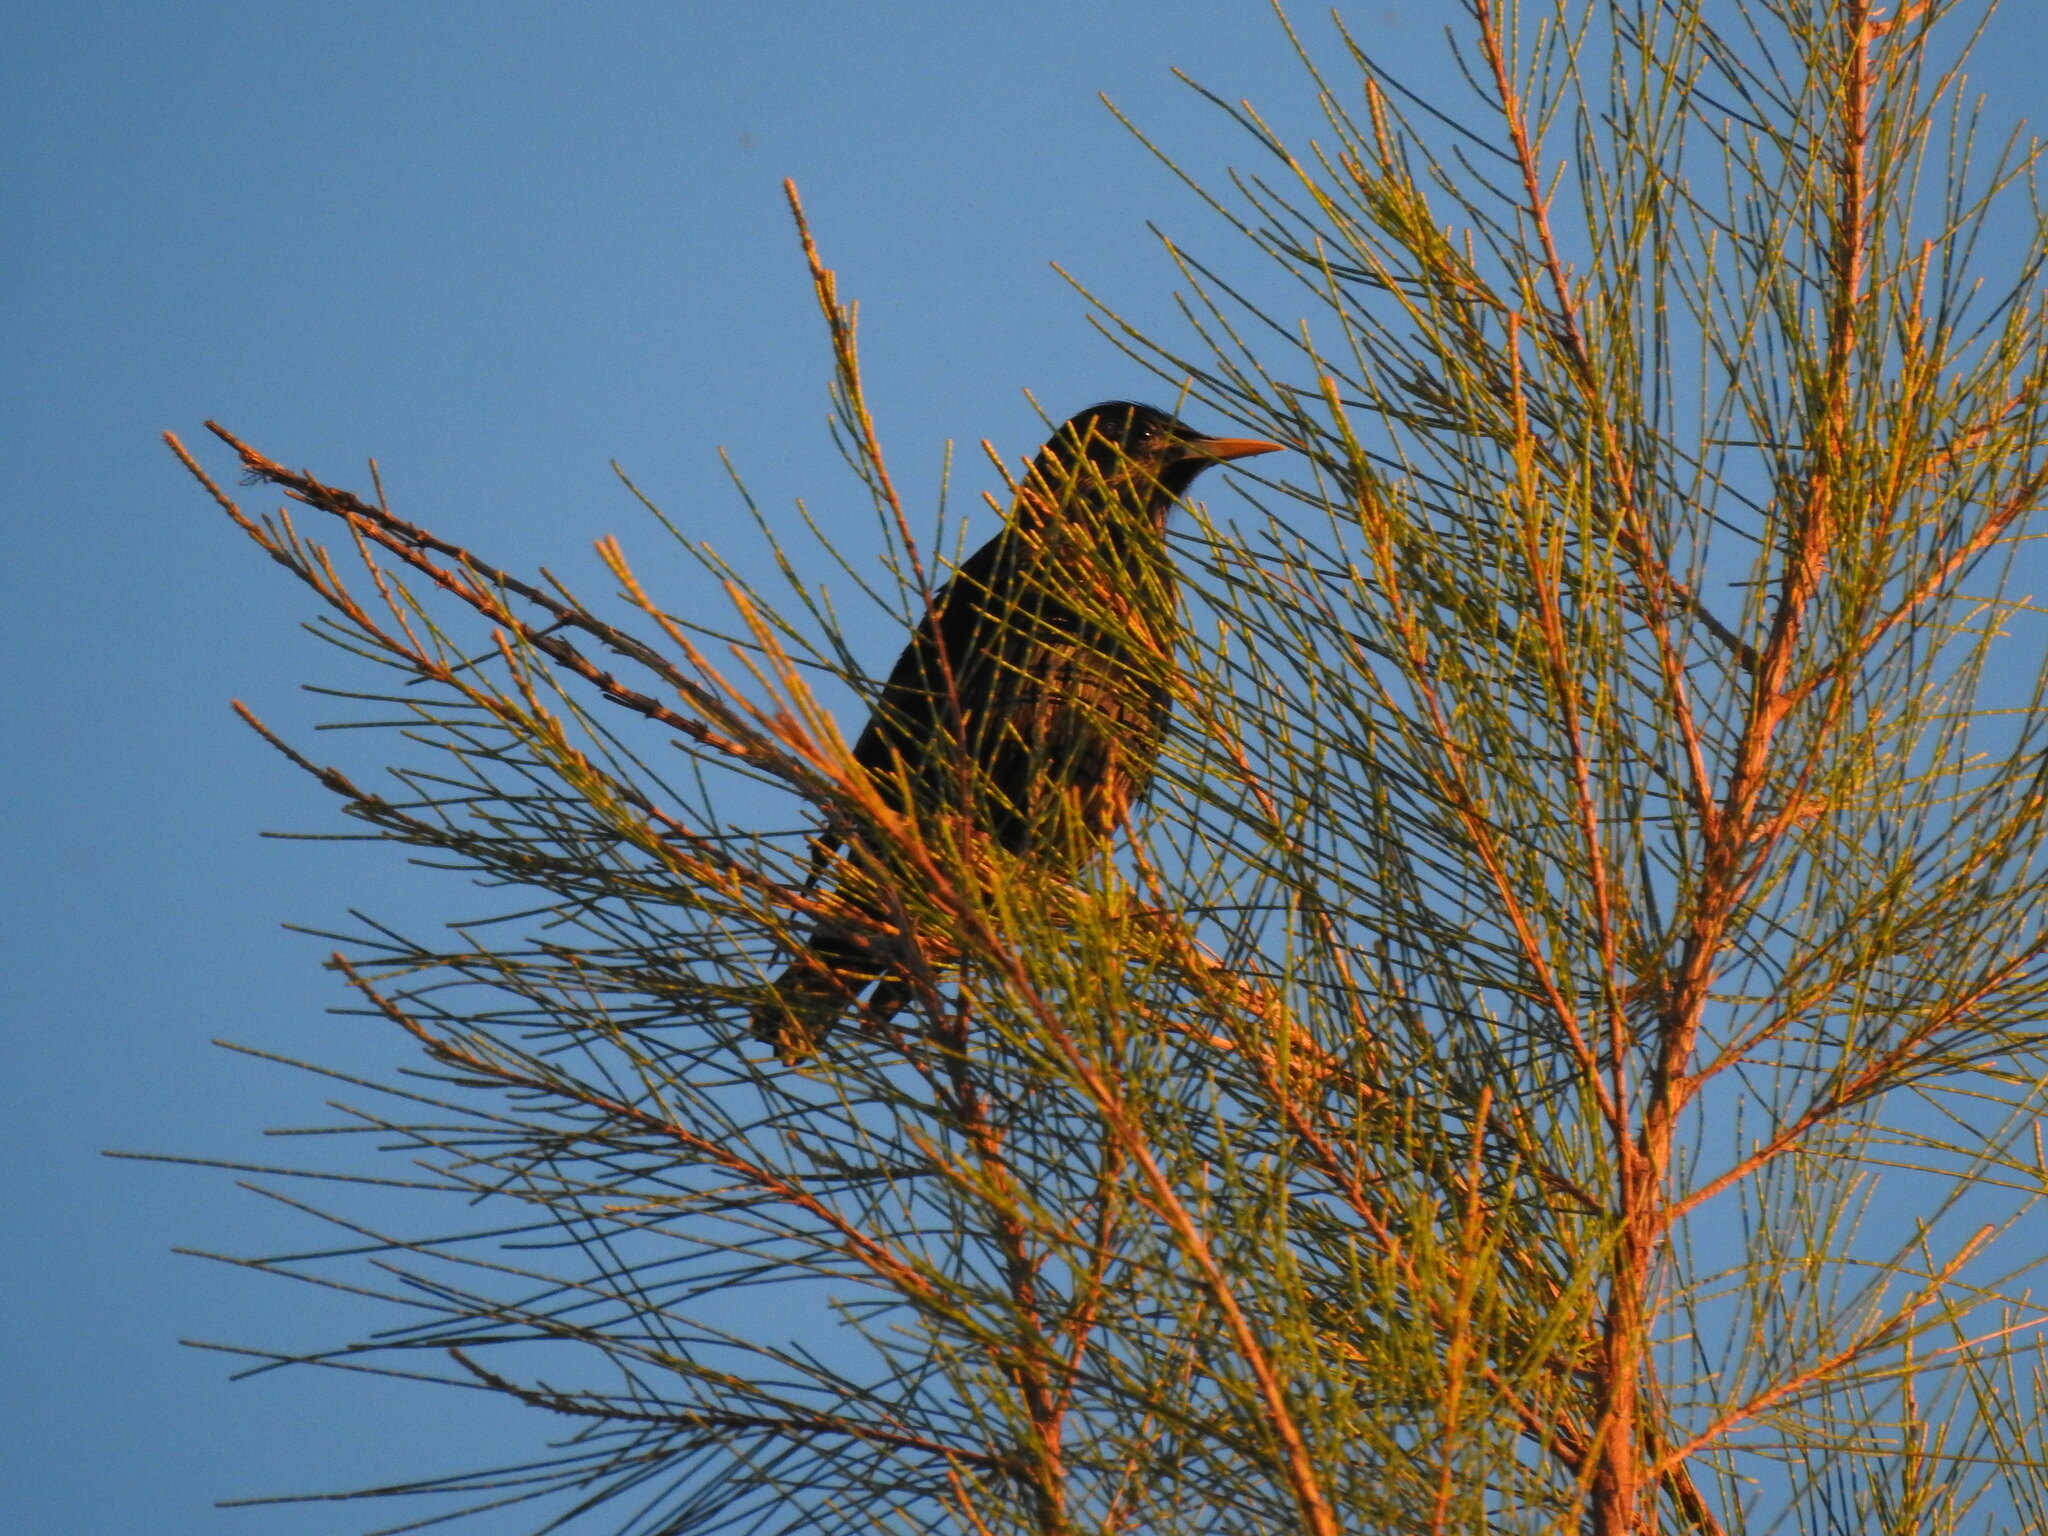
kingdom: Animalia
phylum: Chordata
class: Aves
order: Passeriformes
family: Sturnidae
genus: Sturnus
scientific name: Sturnus unicolor
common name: Spotless starling
